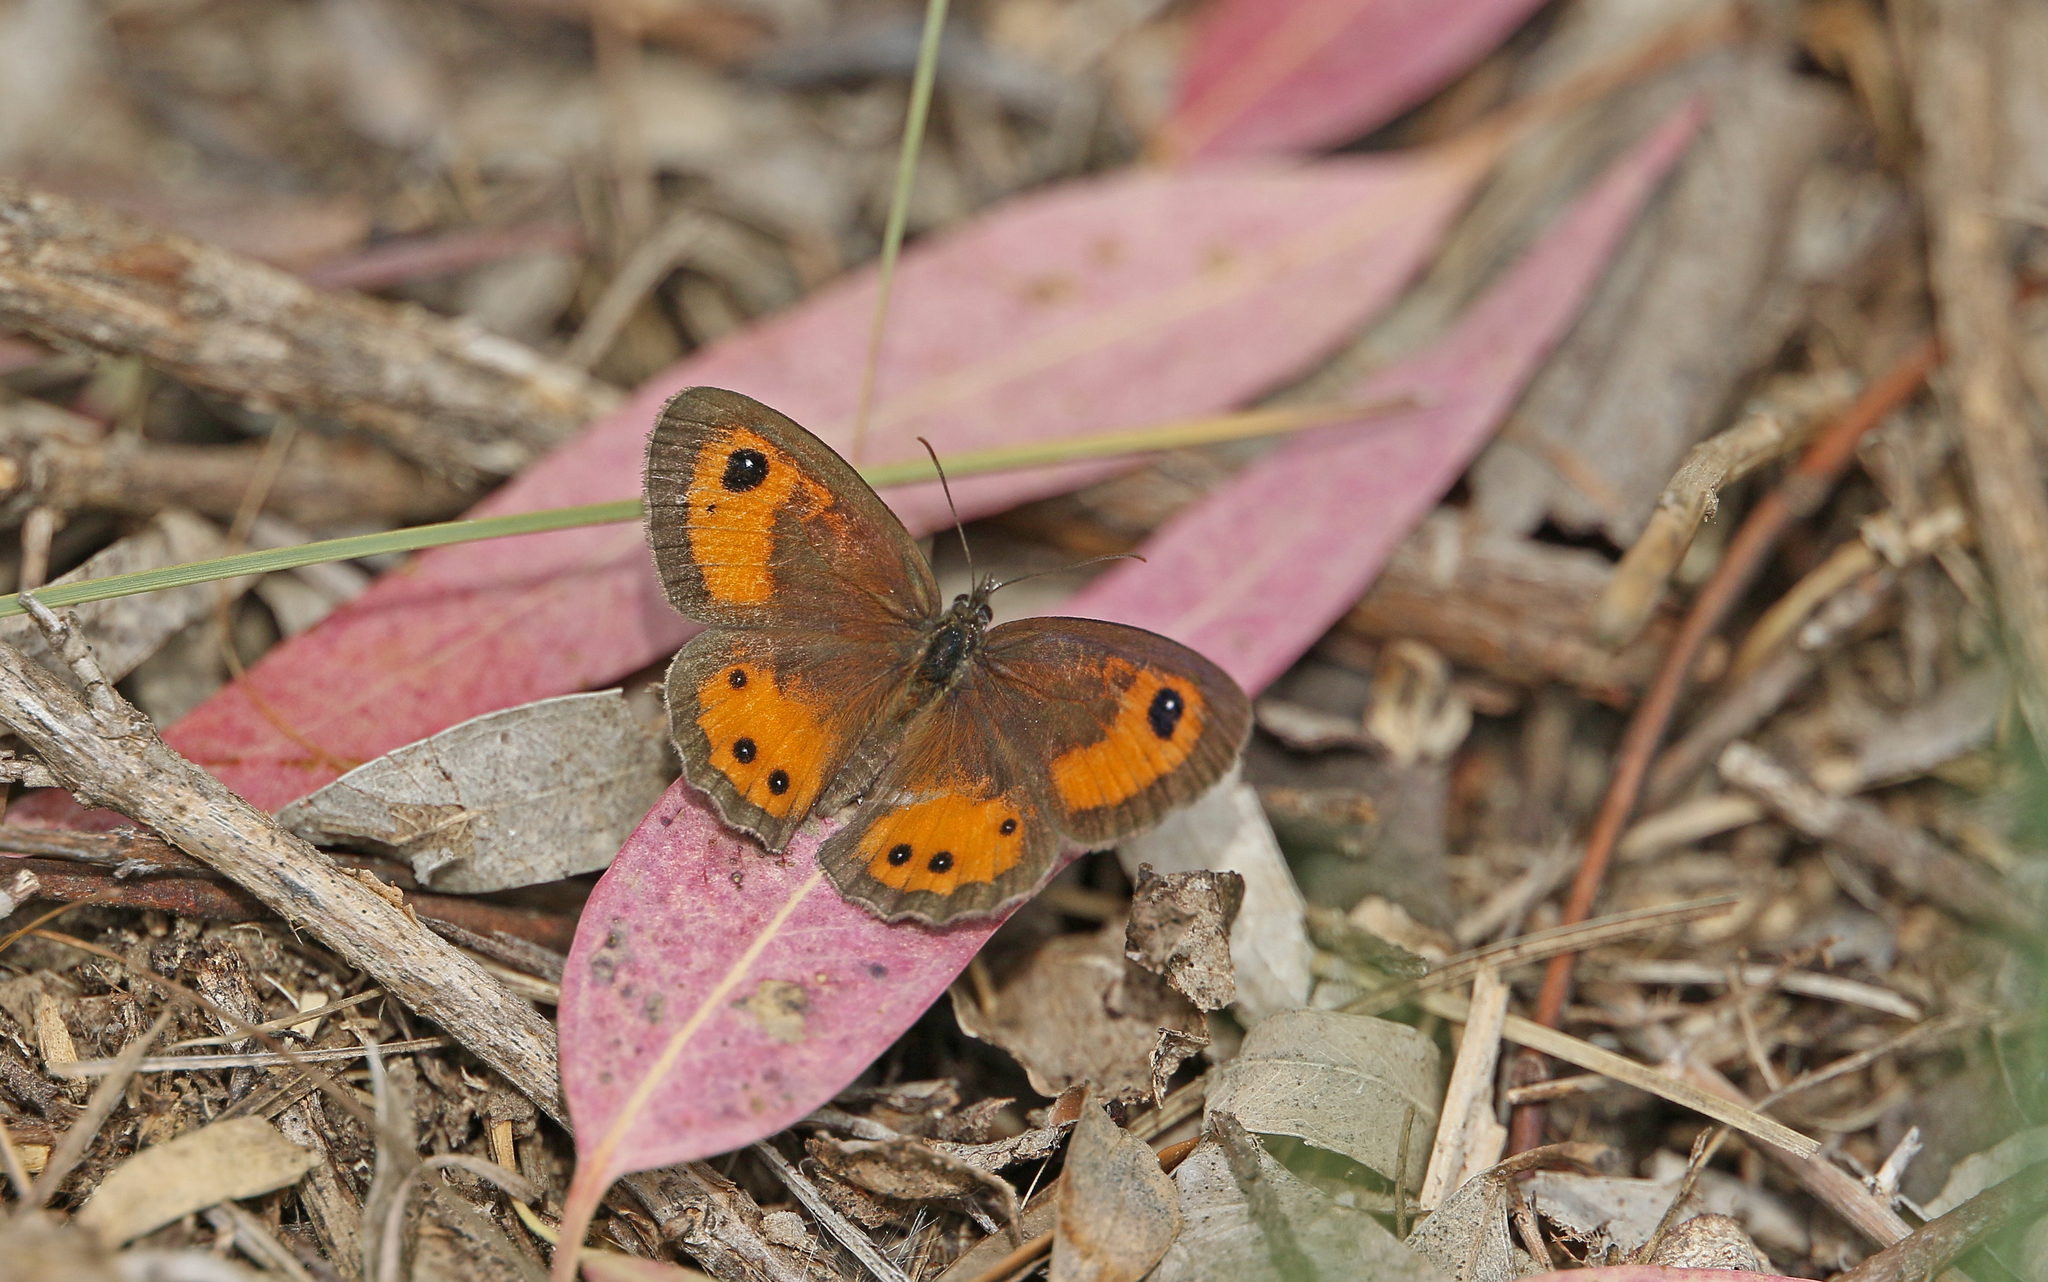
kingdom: Animalia
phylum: Arthropoda
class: Insecta
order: Lepidoptera
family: Nymphalidae
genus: Pyronia
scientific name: Pyronia bathseba
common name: Spanish gatekeeper
